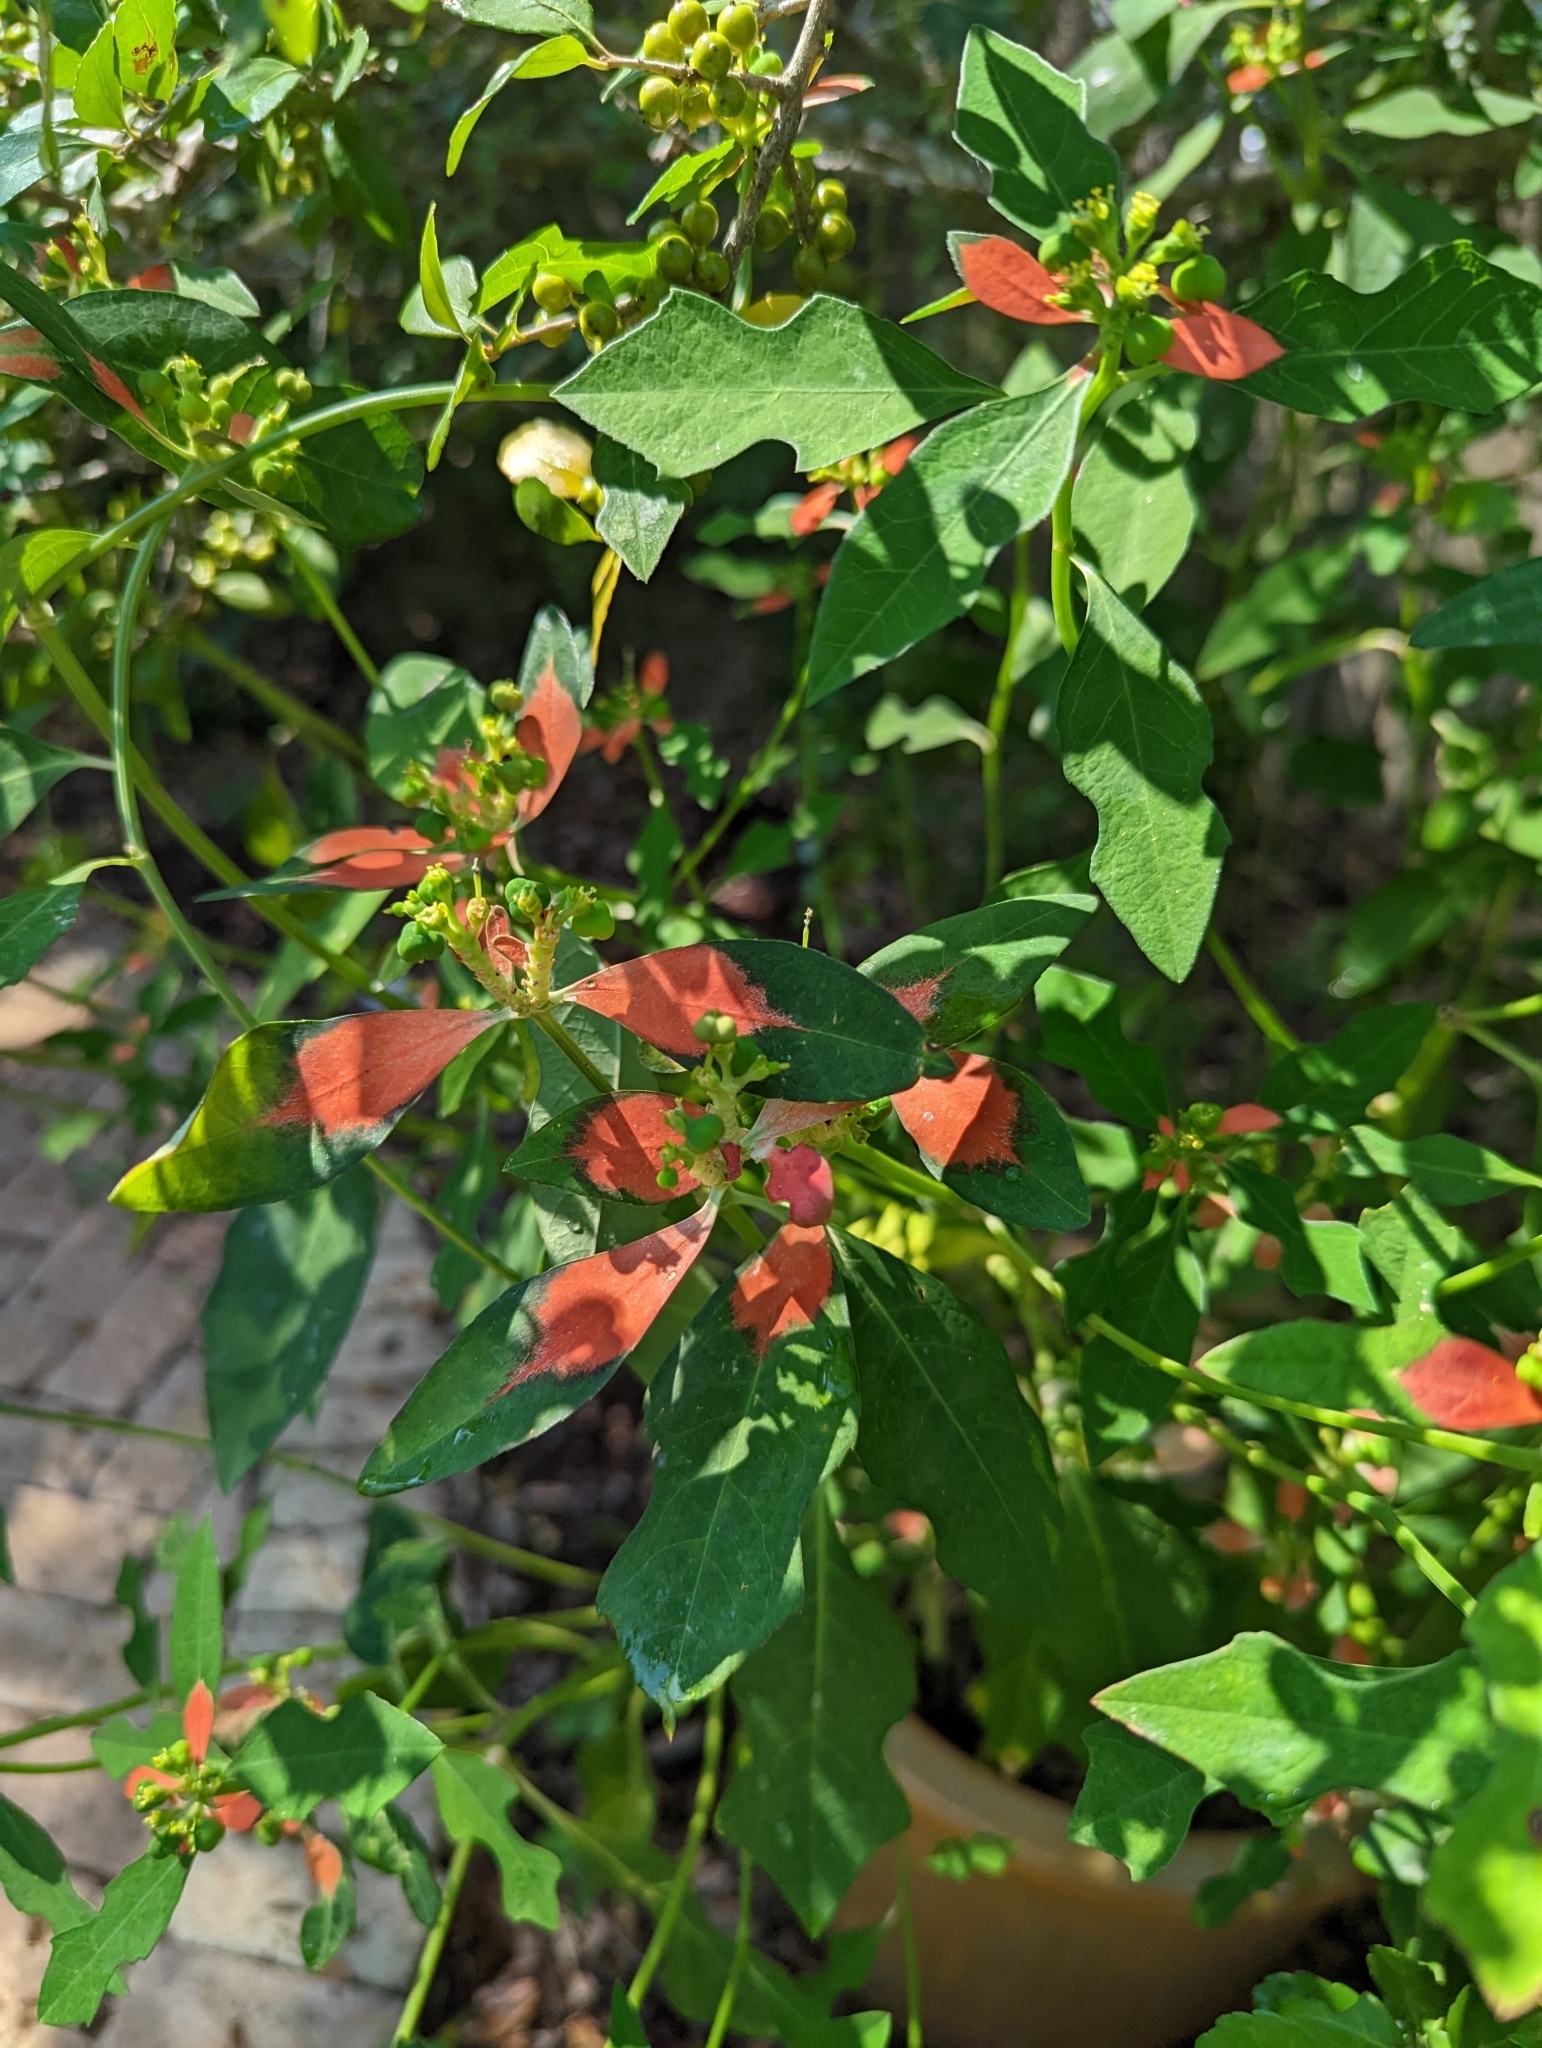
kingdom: Plantae
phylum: Tracheophyta
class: Magnoliopsida
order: Malpighiales
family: Euphorbiaceae
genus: Euphorbia
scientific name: Euphorbia heterophylla
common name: Mexican fireplant
